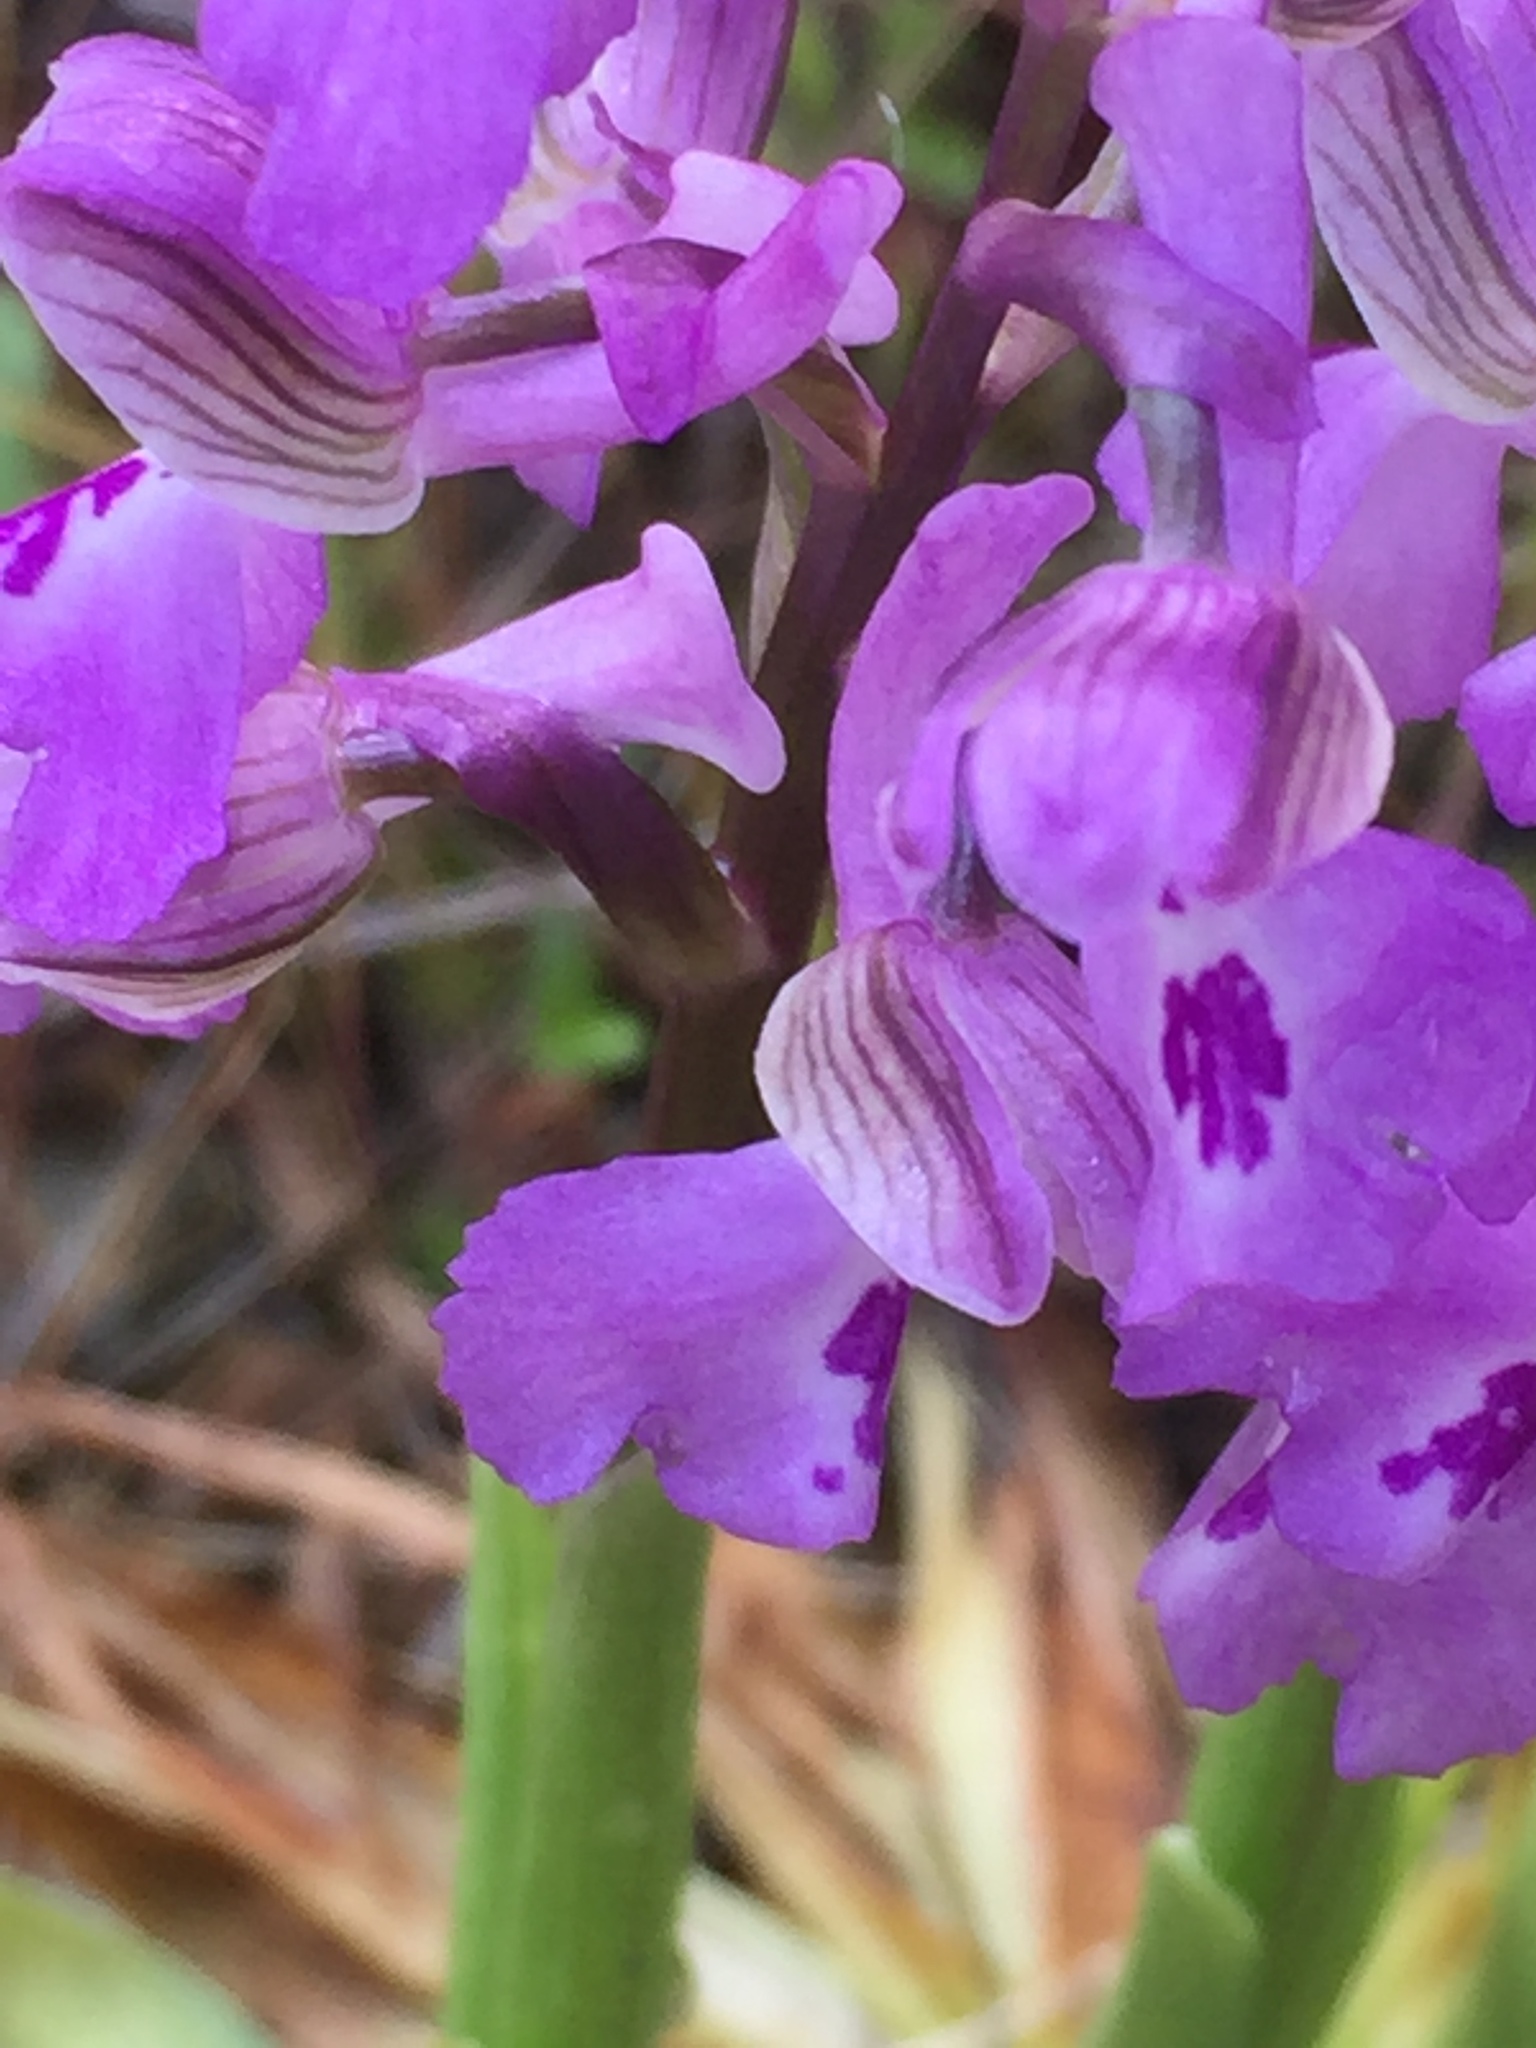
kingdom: Plantae
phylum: Tracheophyta
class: Liliopsida
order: Asparagales
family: Orchidaceae
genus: Anacamptis
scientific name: Anacamptis morio
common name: Green-winged orchid
